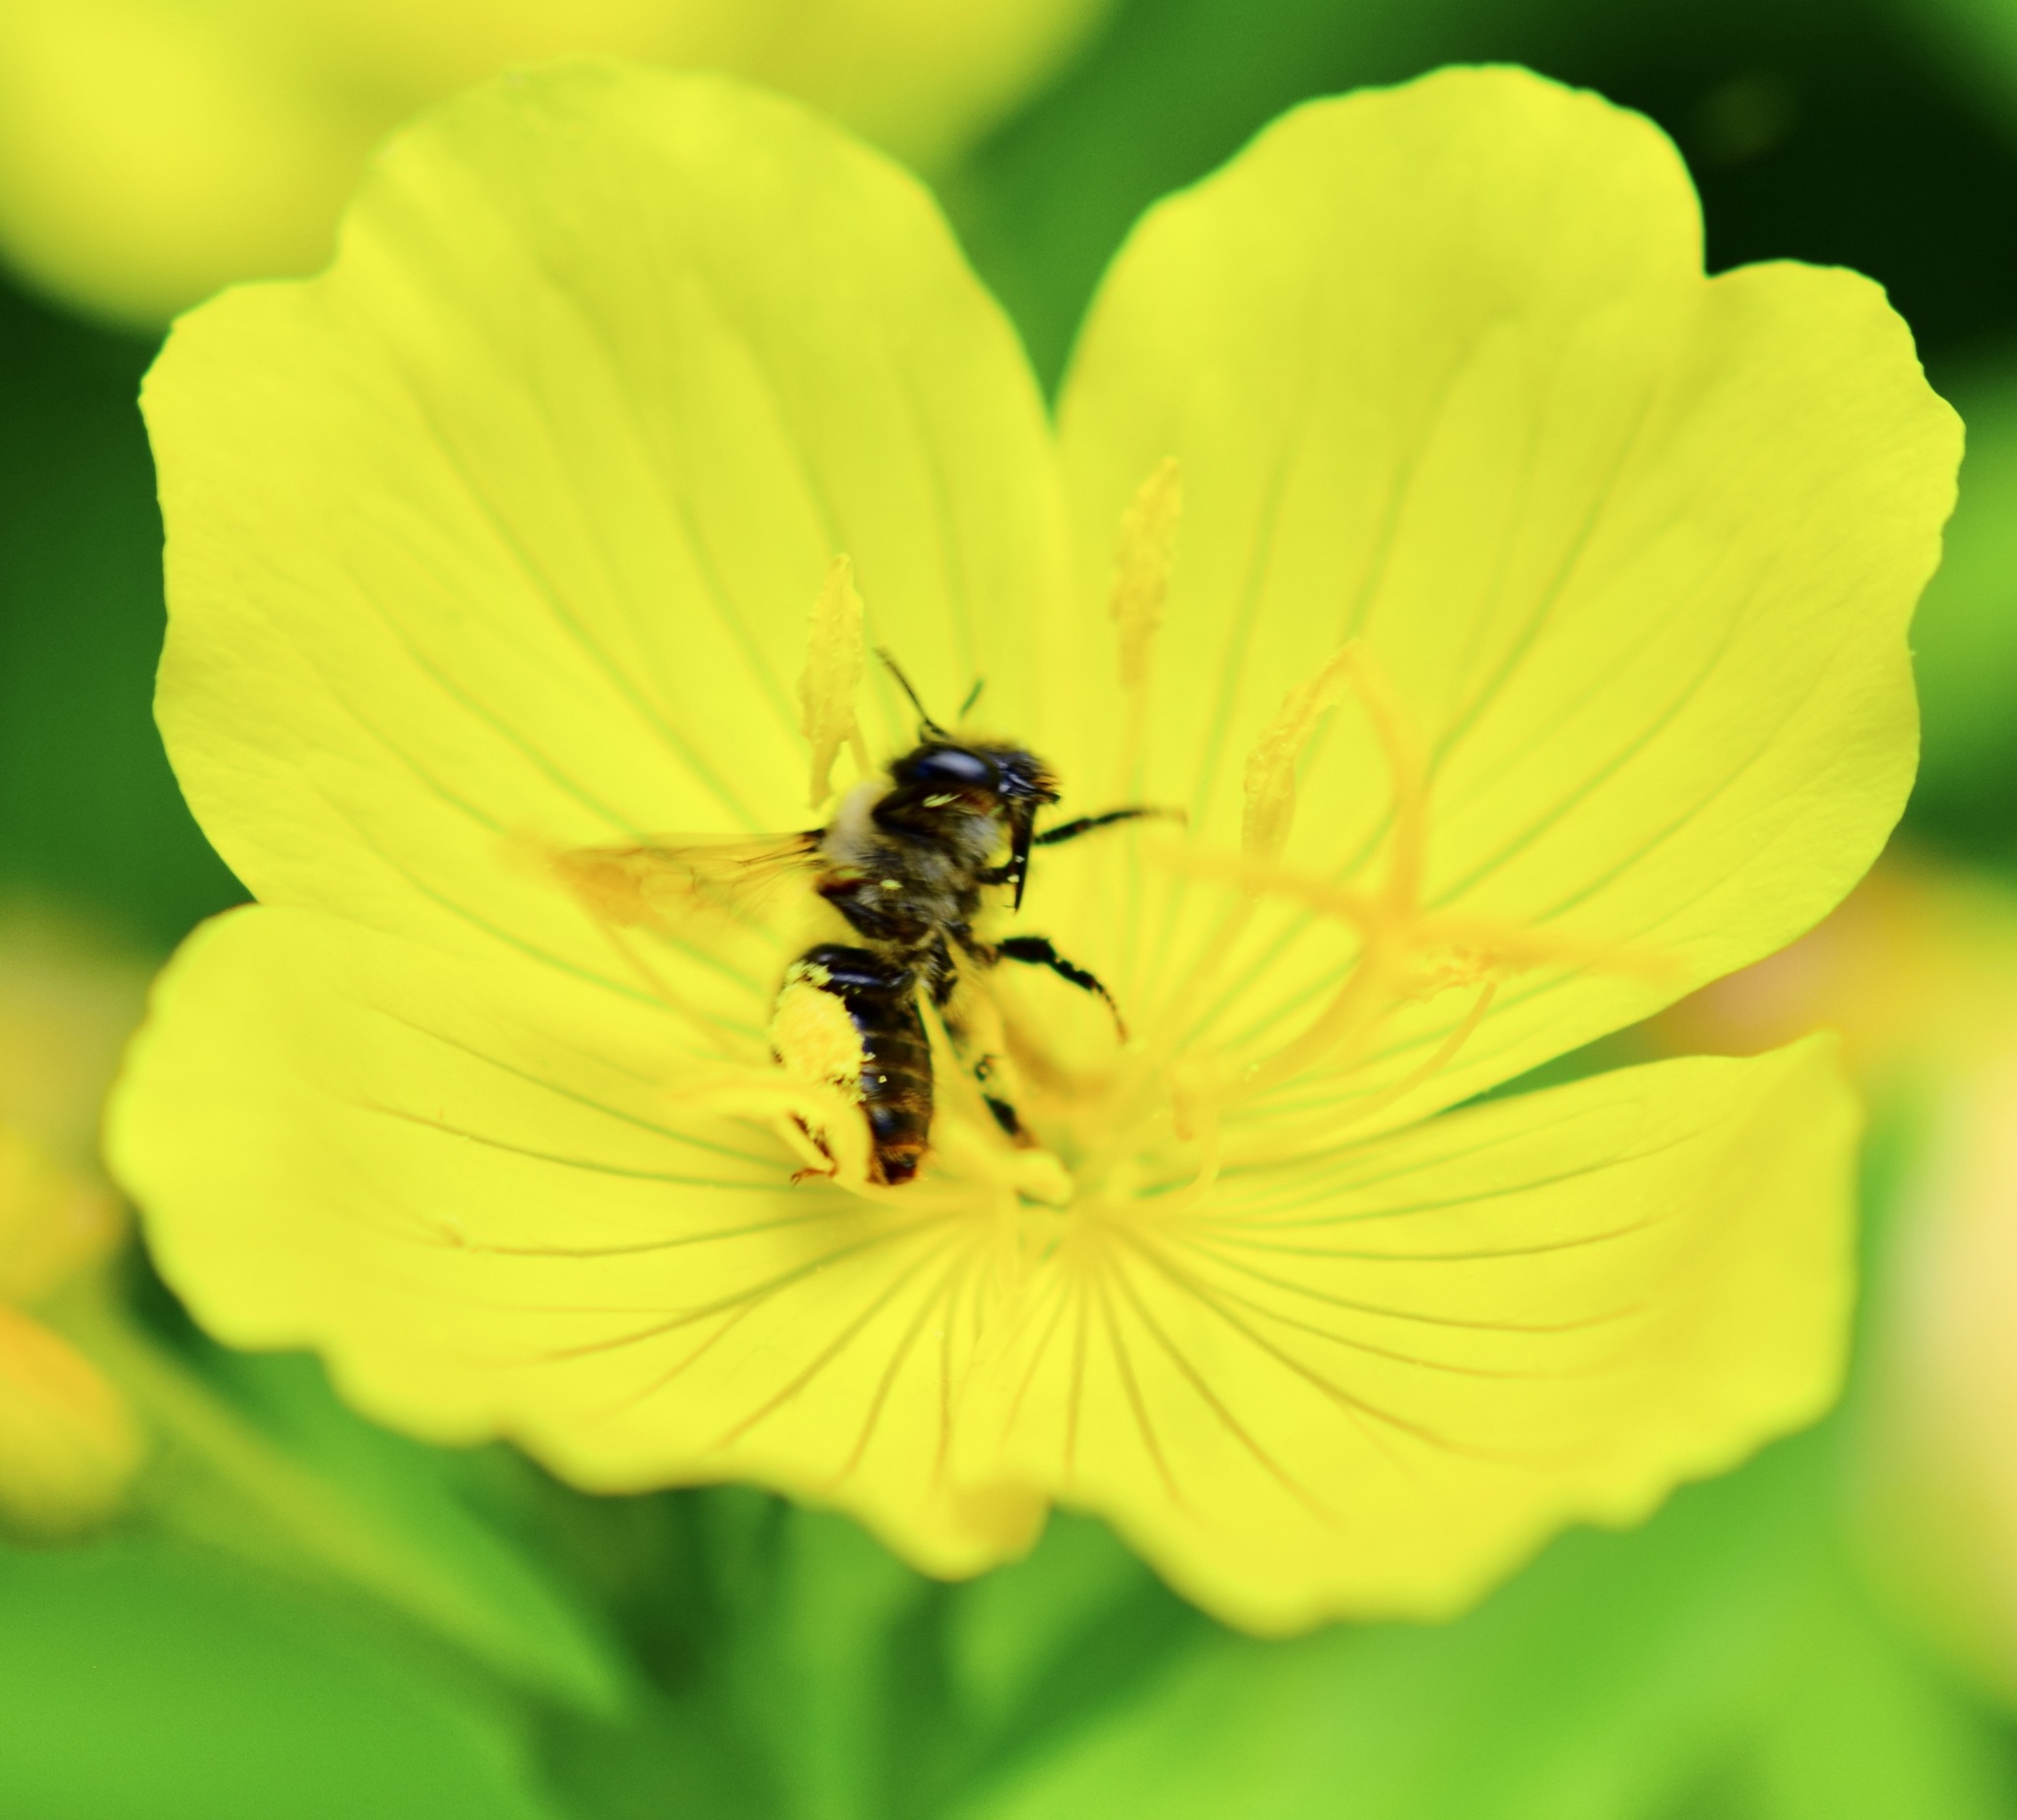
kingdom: Animalia
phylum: Arthropoda
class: Insecta
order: Hymenoptera
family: Apidae
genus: Anthophora
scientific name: Anthophora terminalis
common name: Orange-tipped wood-digger bee
